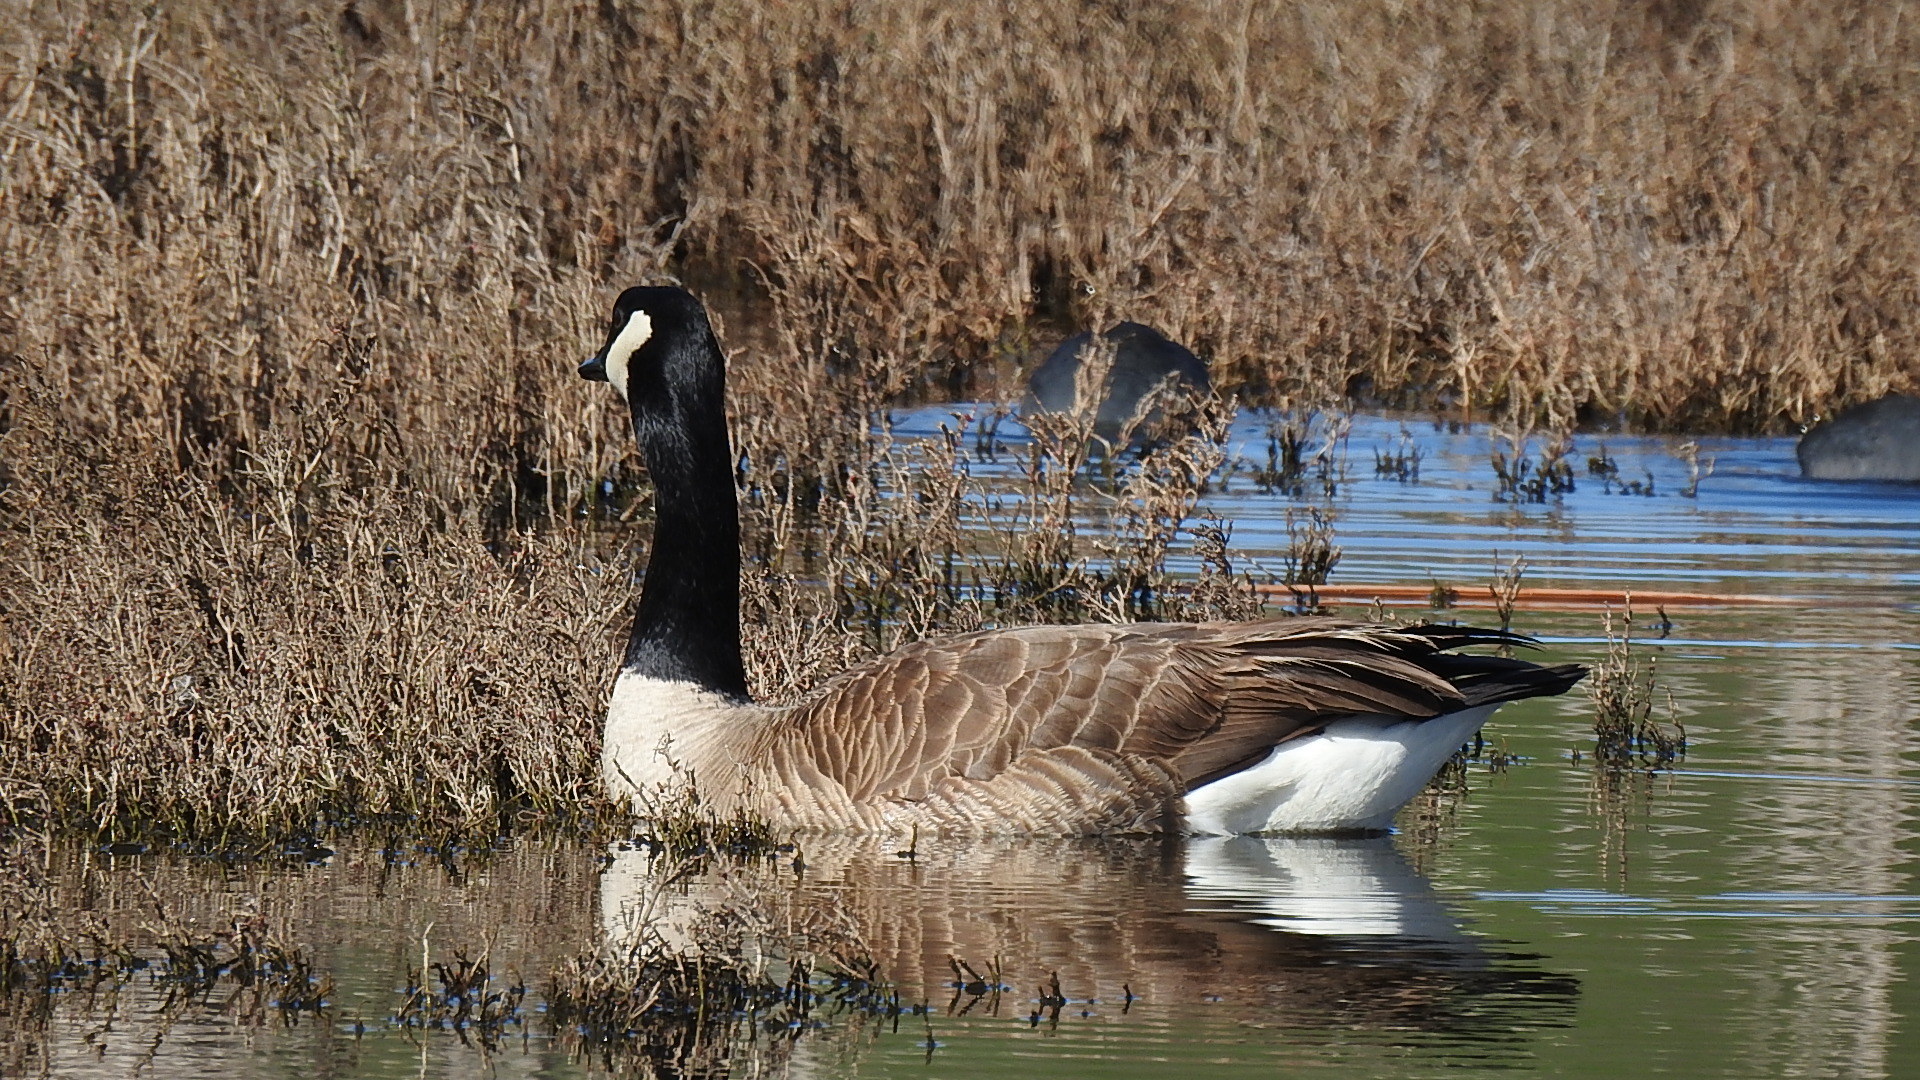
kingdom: Animalia
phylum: Chordata
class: Aves
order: Anseriformes
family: Anatidae
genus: Branta
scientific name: Branta canadensis
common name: Canada goose
